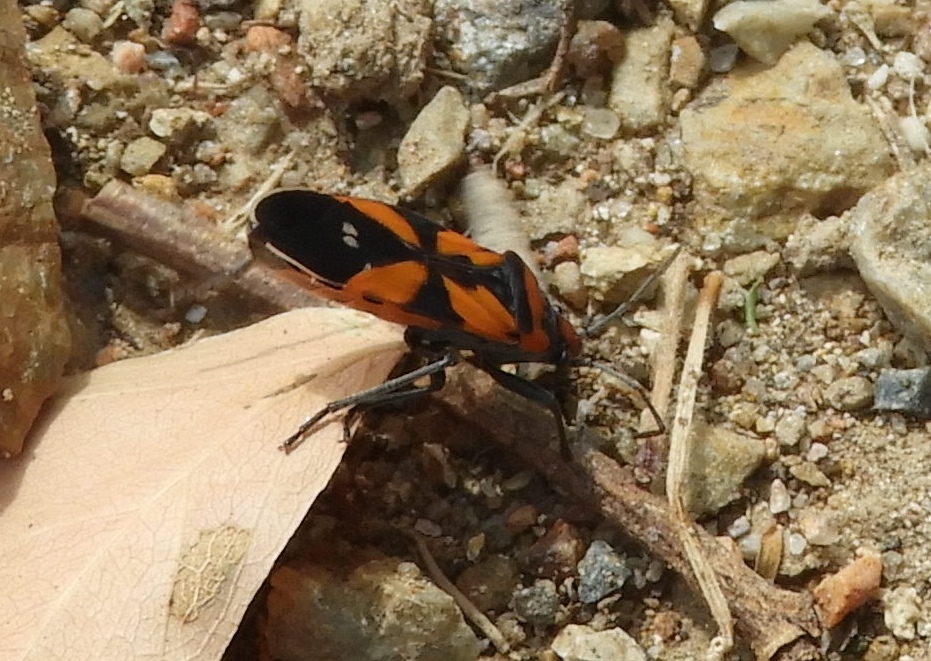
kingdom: Animalia
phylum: Arthropoda
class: Insecta
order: Hemiptera
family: Lygaeidae
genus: Lygaeus
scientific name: Lygaeus analis
